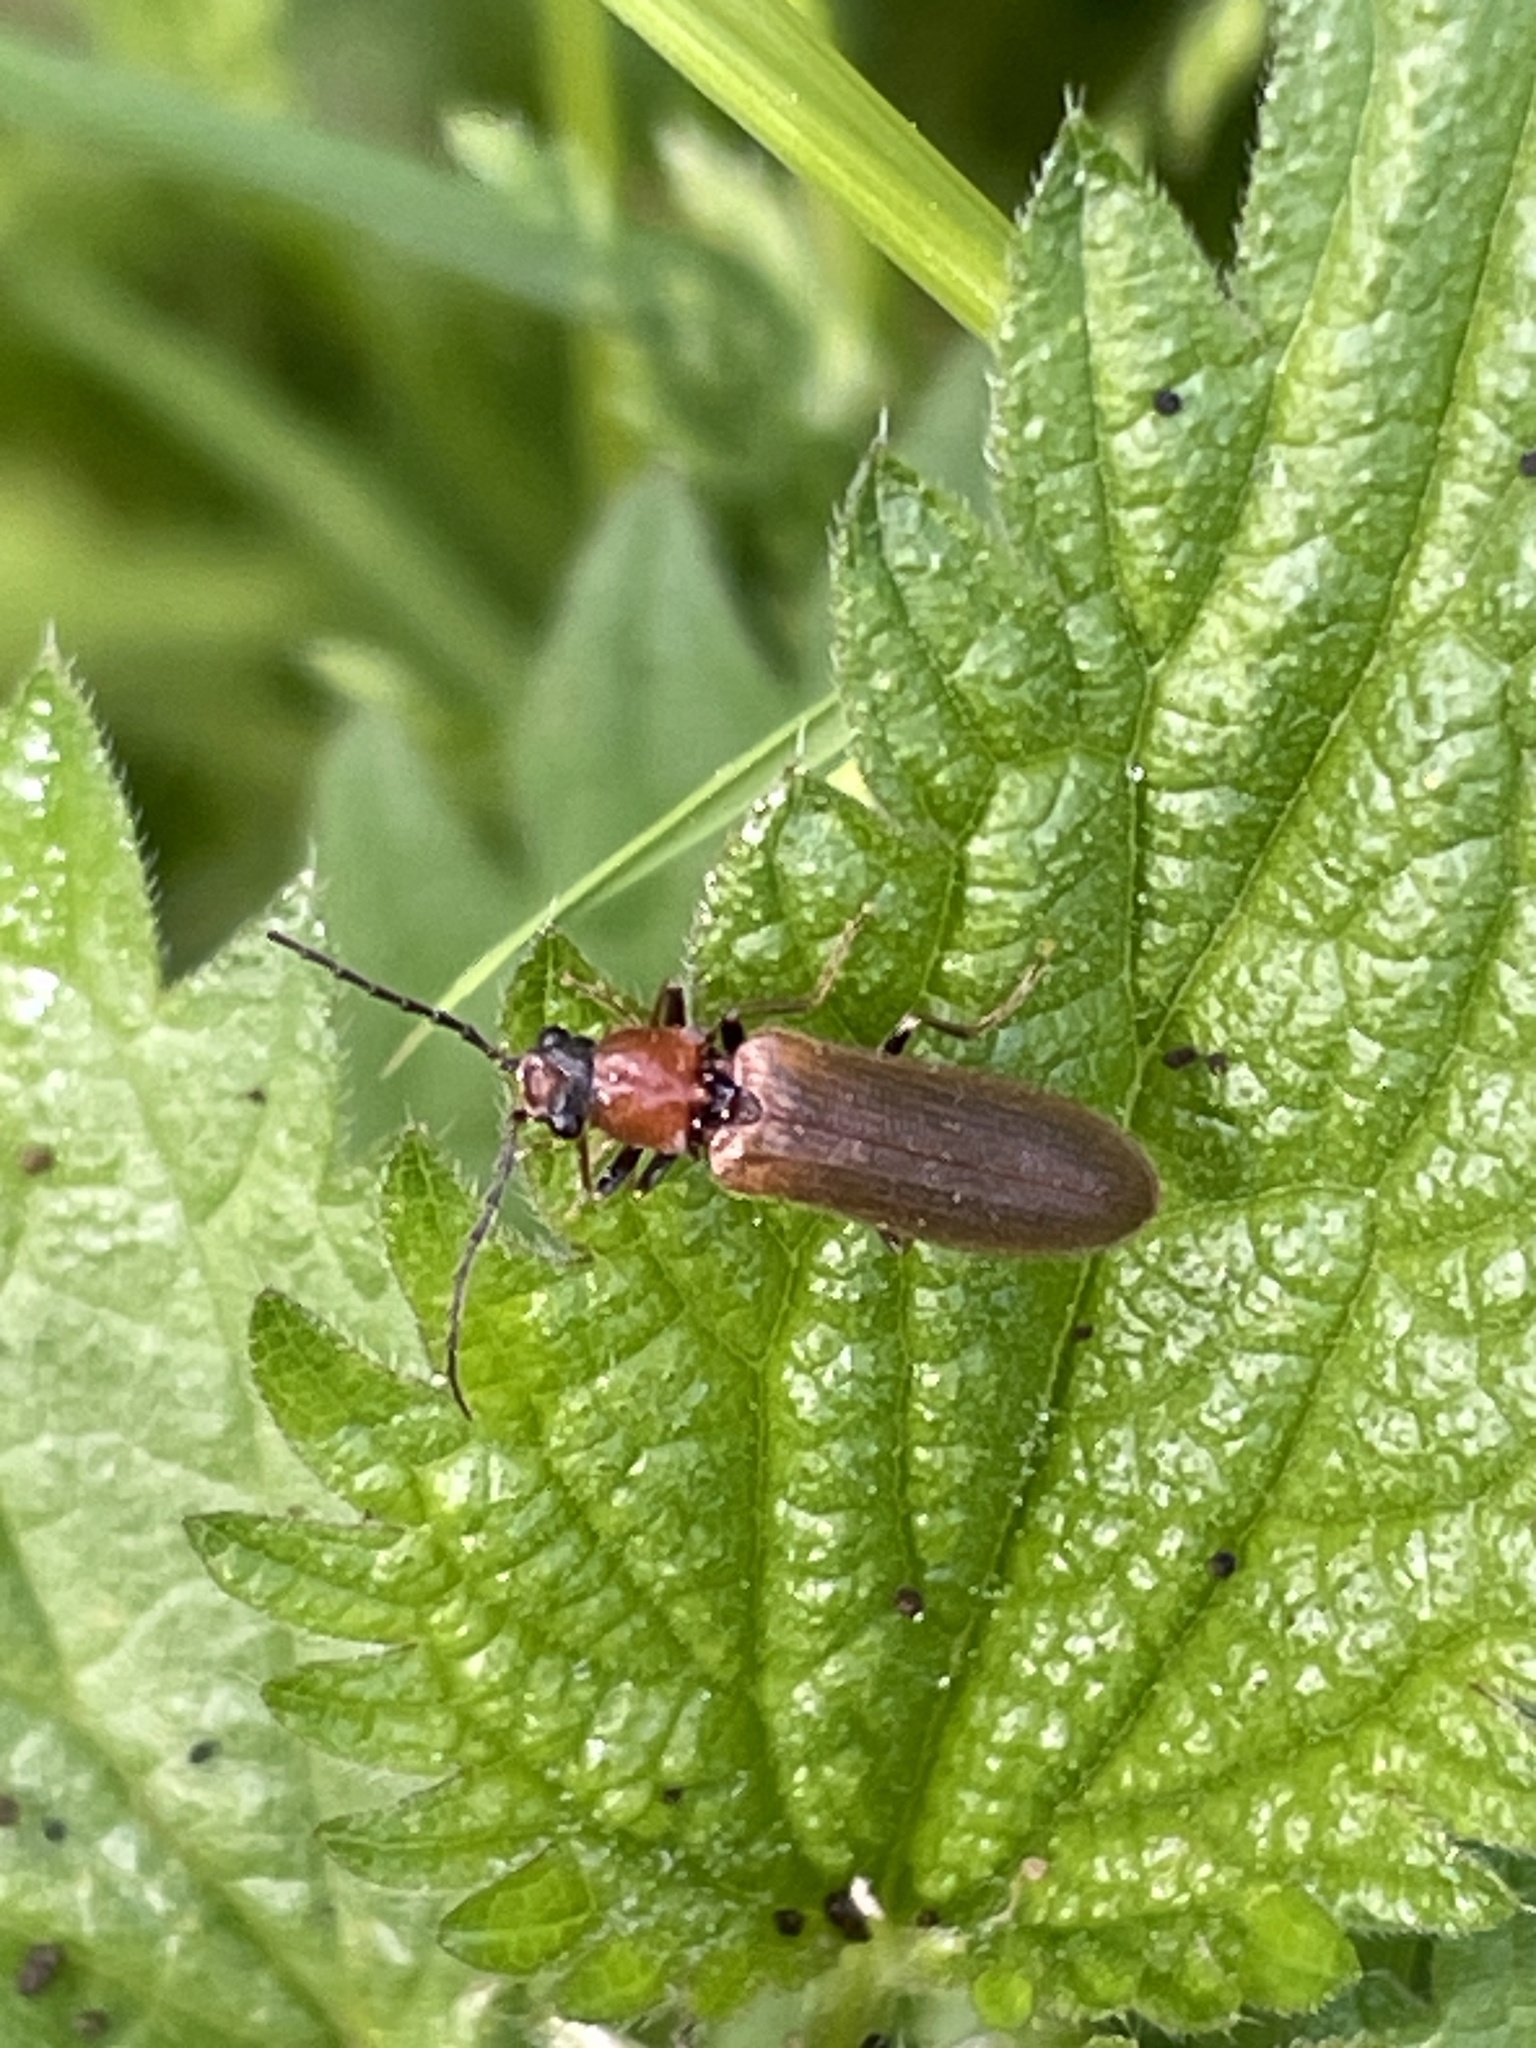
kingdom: Animalia
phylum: Arthropoda
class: Insecta
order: Coleoptera
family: Elateridae
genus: Denticollis
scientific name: Denticollis linearis
